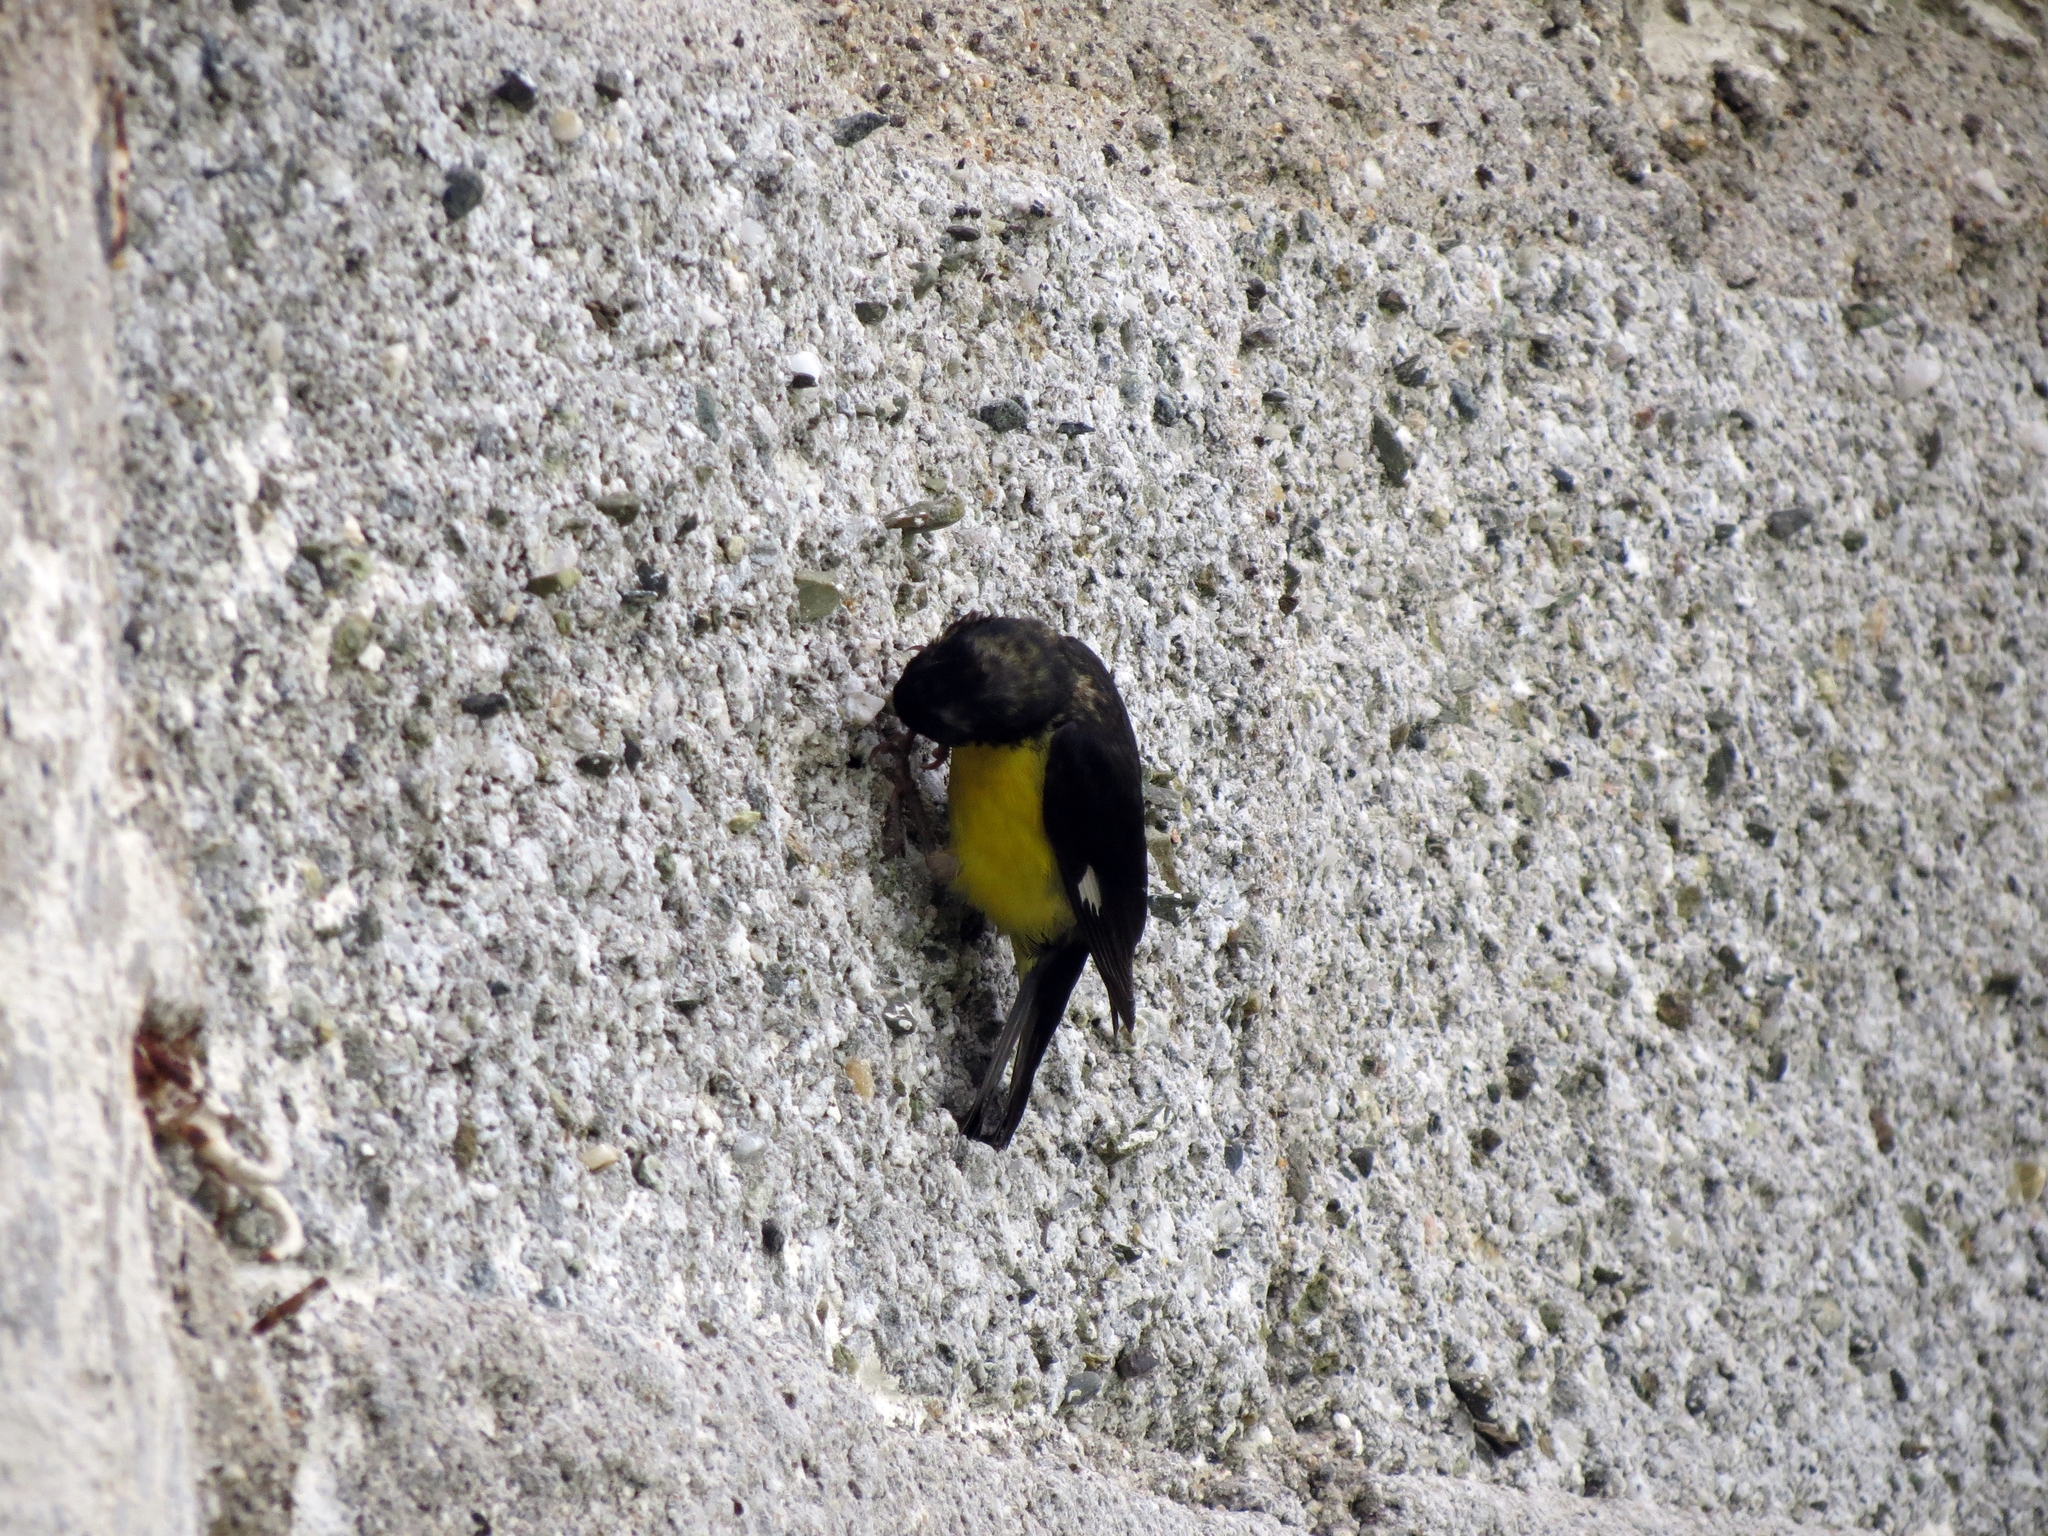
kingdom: Animalia
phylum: Chordata
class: Aves
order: Passeriformes
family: Fringillidae
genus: Spinus
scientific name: Spinus psaltria
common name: Lesser goldfinch
